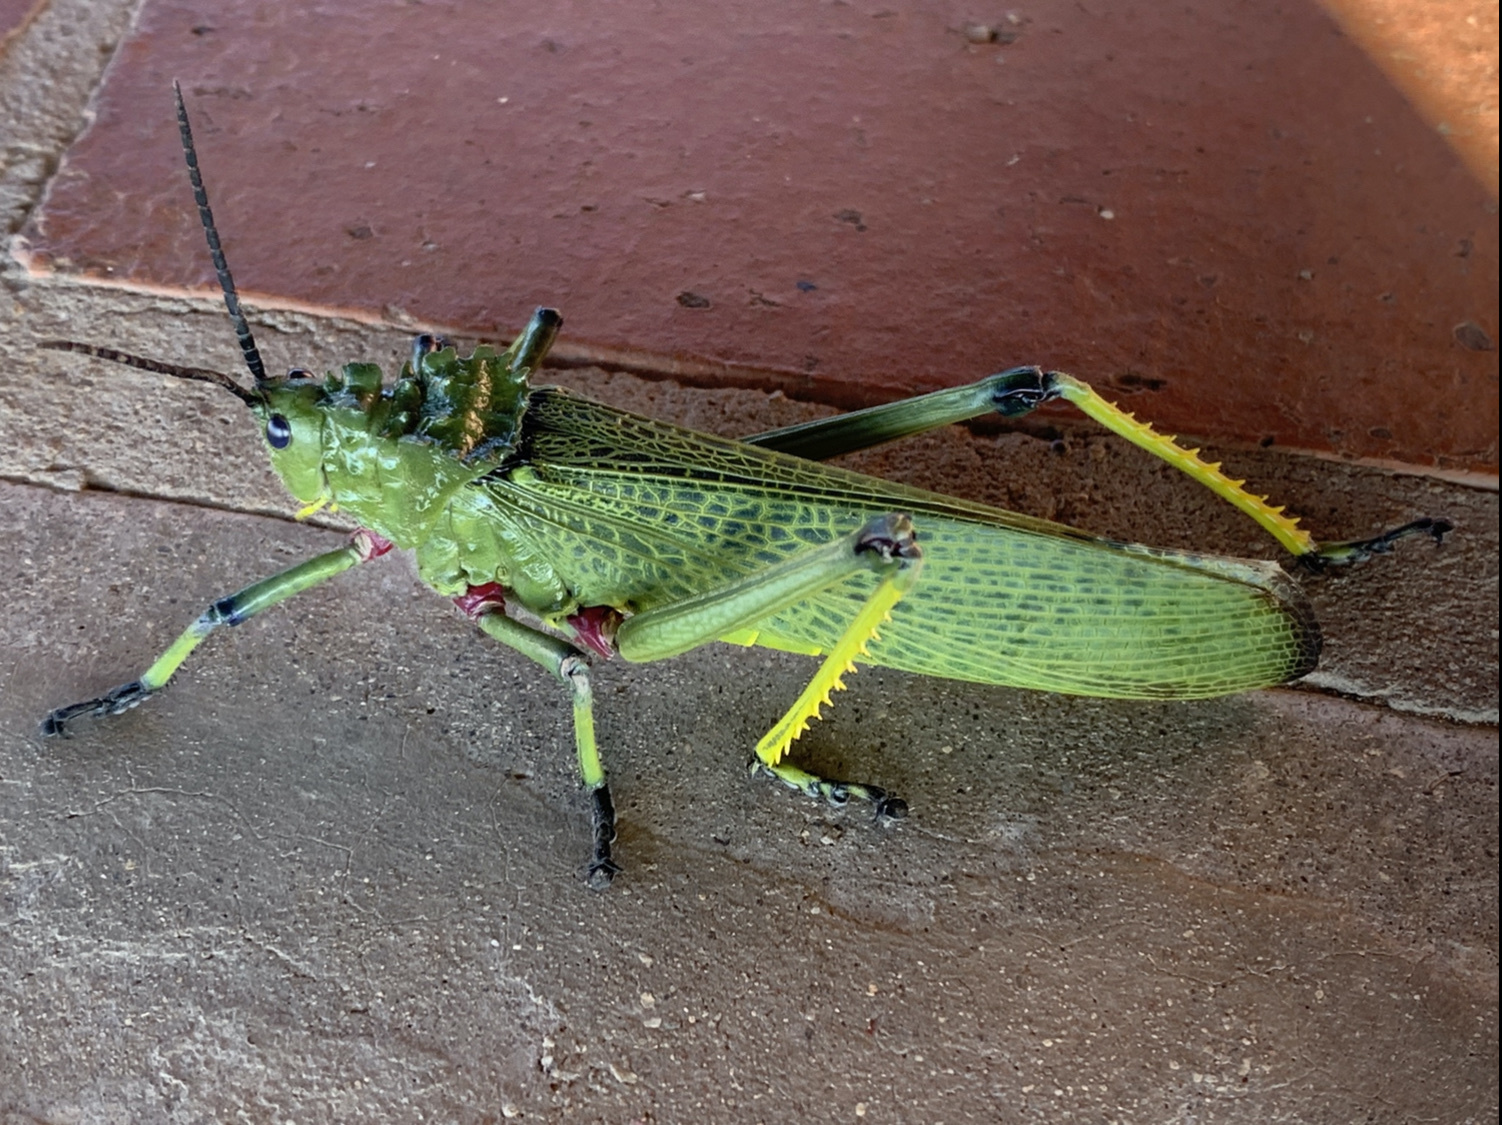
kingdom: Animalia
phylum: Arthropoda
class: Insecta
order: Orthoptera
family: Pyrgomorphidae
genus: Phymateus
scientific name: Phymateus viridipes
